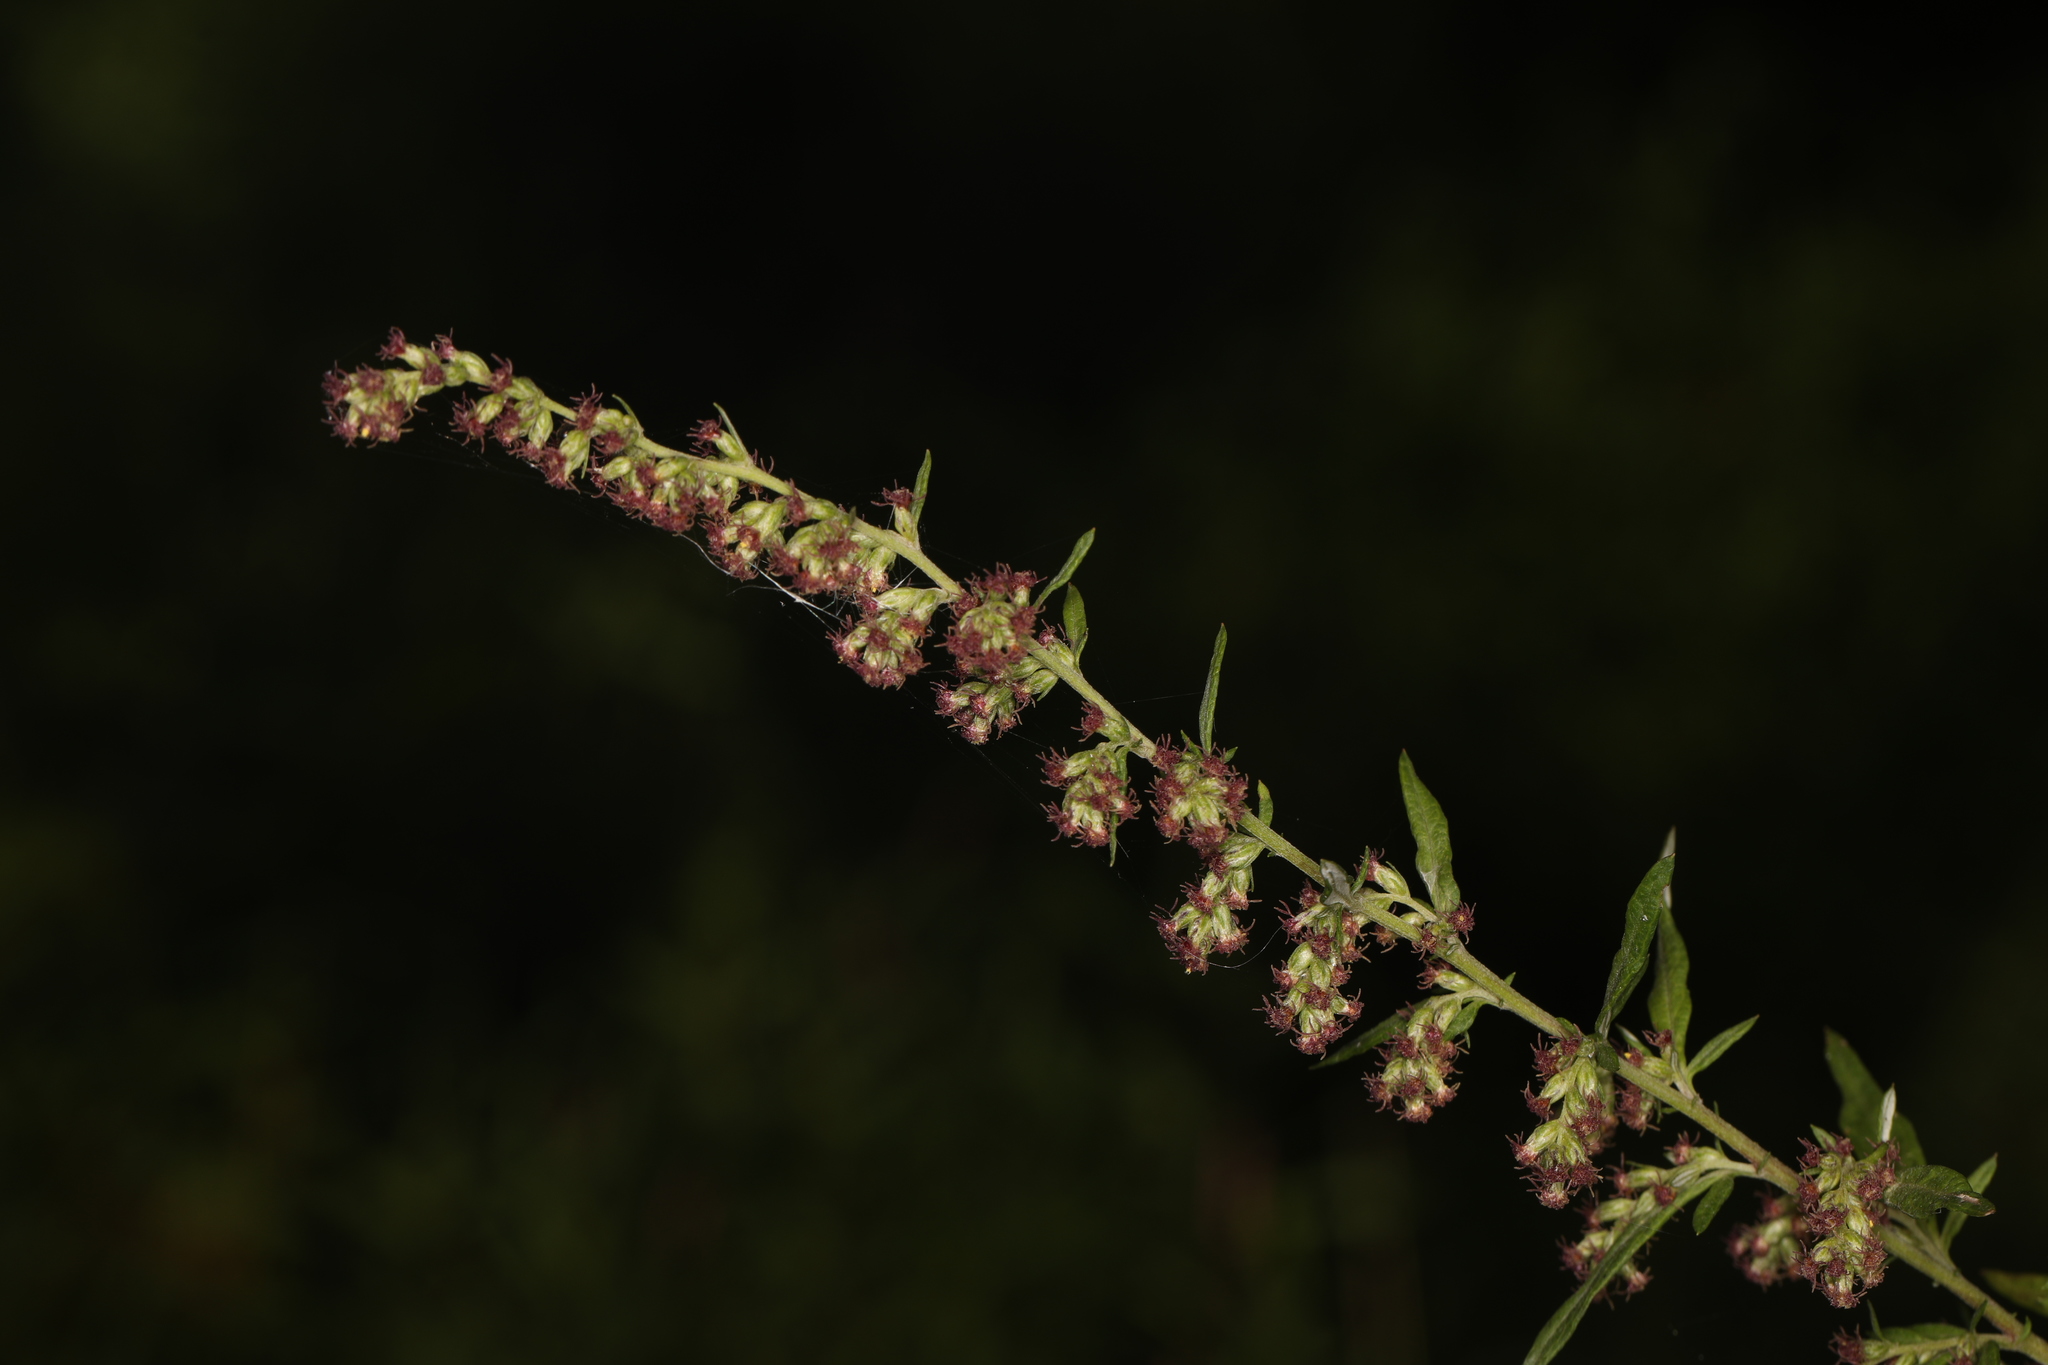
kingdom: Plantae
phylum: Tracheophyta
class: Magnoliopsida
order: Asterales
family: Asteraceae
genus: Artemisia
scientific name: Artemisia vulgaris
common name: Mugwort
